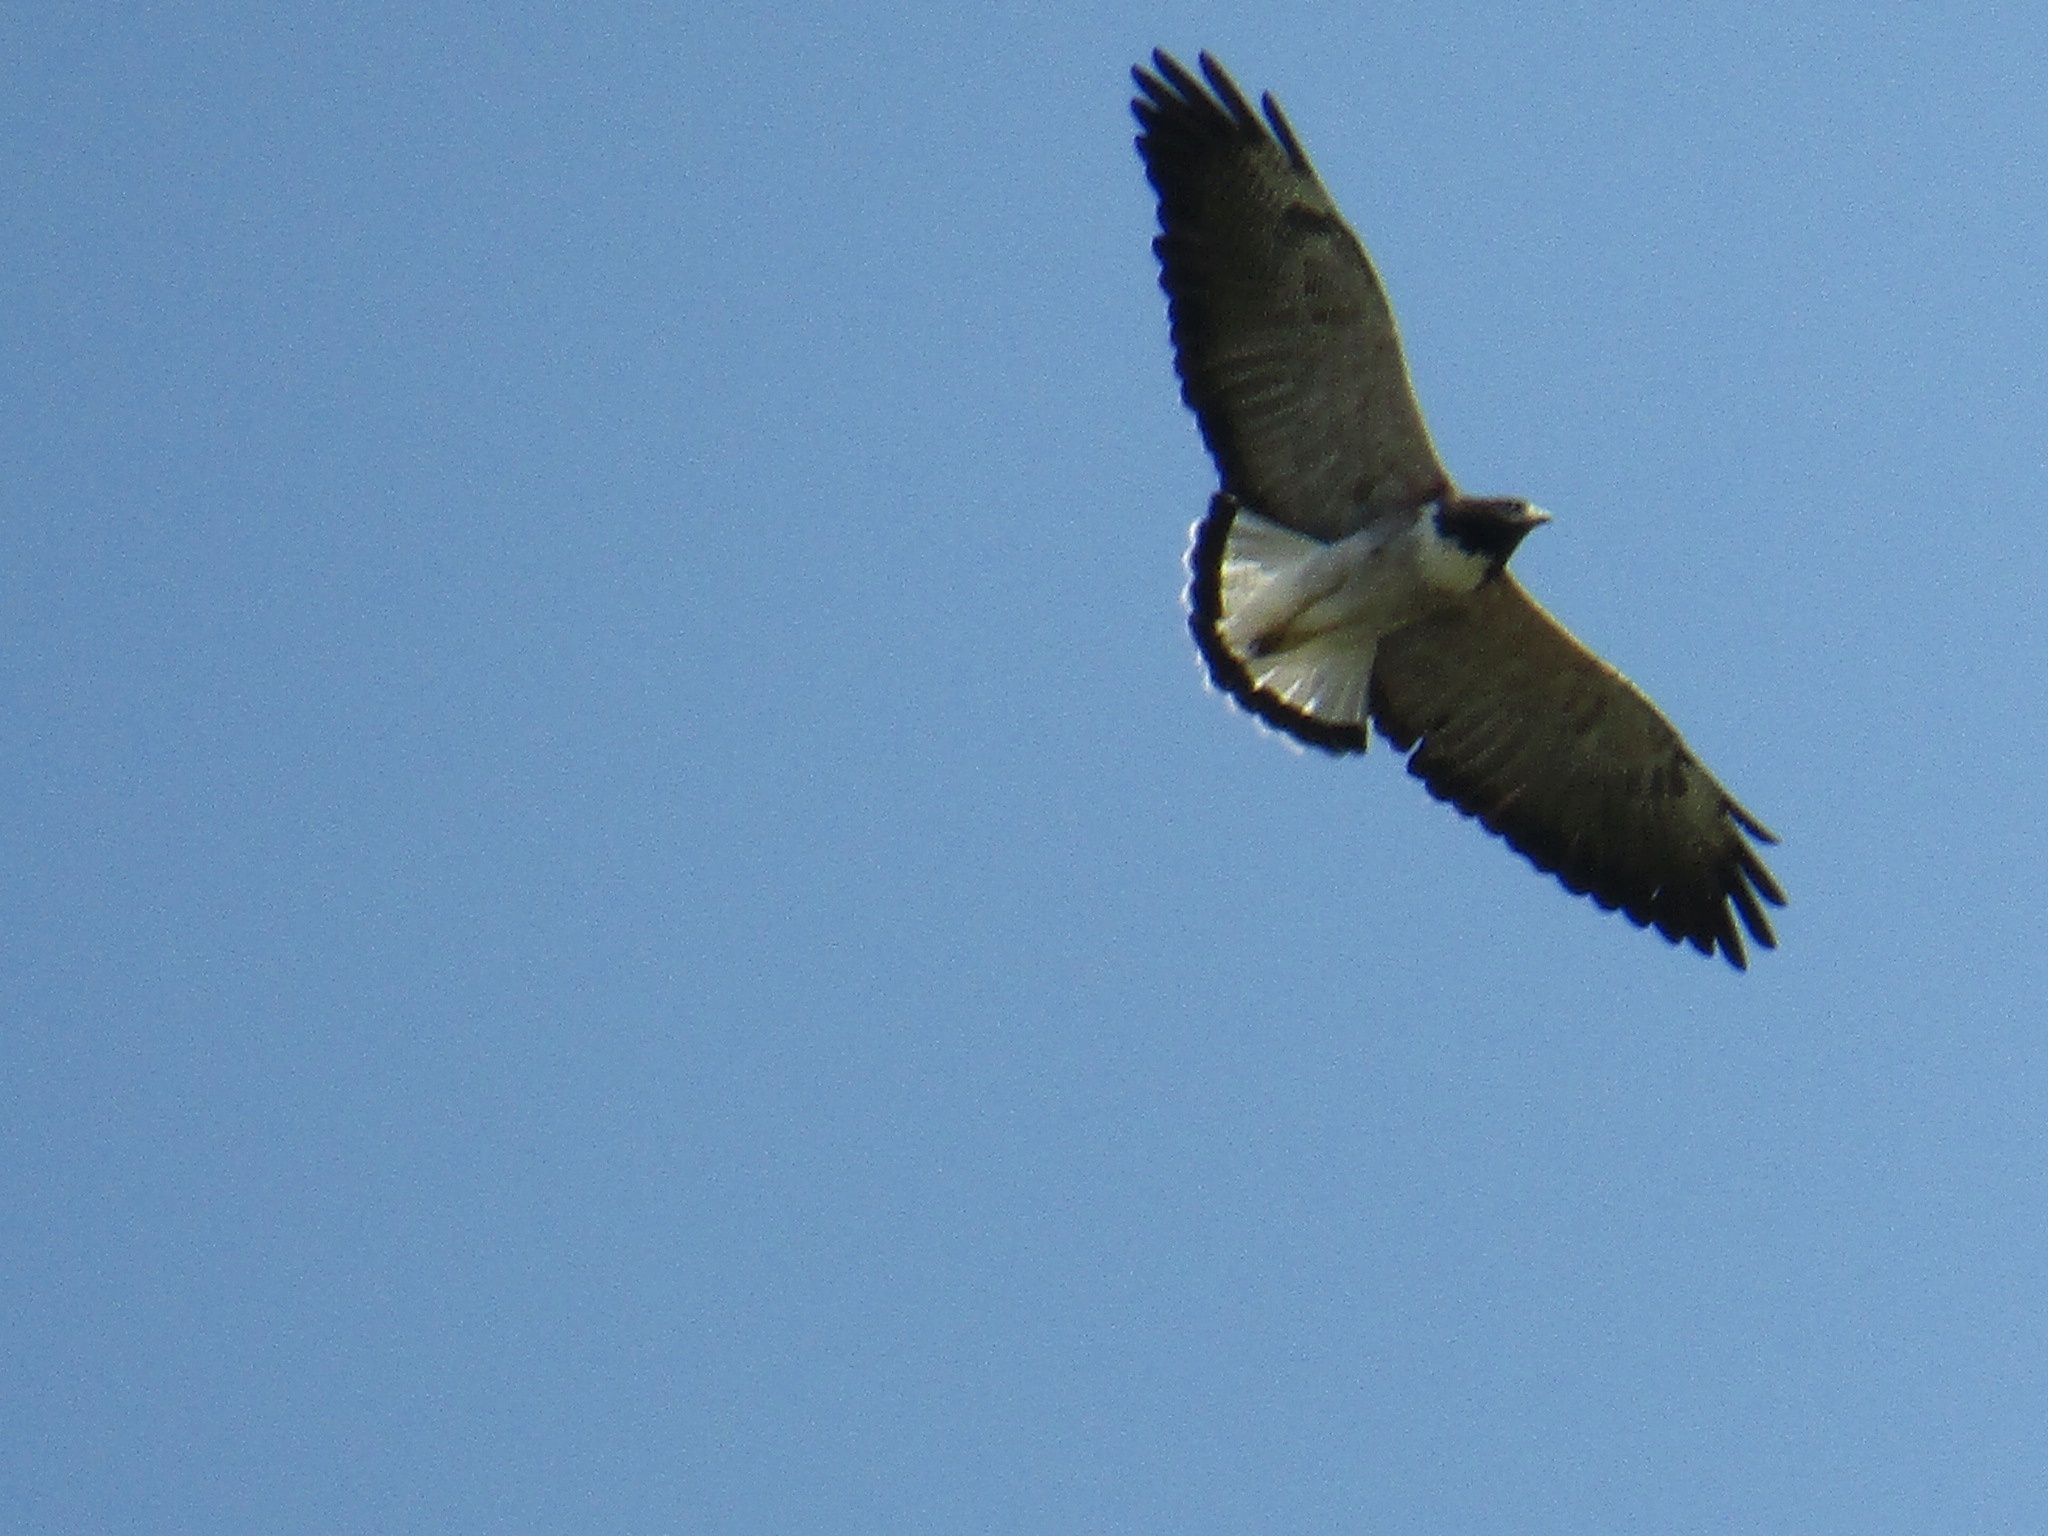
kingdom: Animalia
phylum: Chordata
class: Aves
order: Accipitriformes
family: Accipitridae
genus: Buteo
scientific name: Buteo albicaudatus
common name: White-tailed hawk
